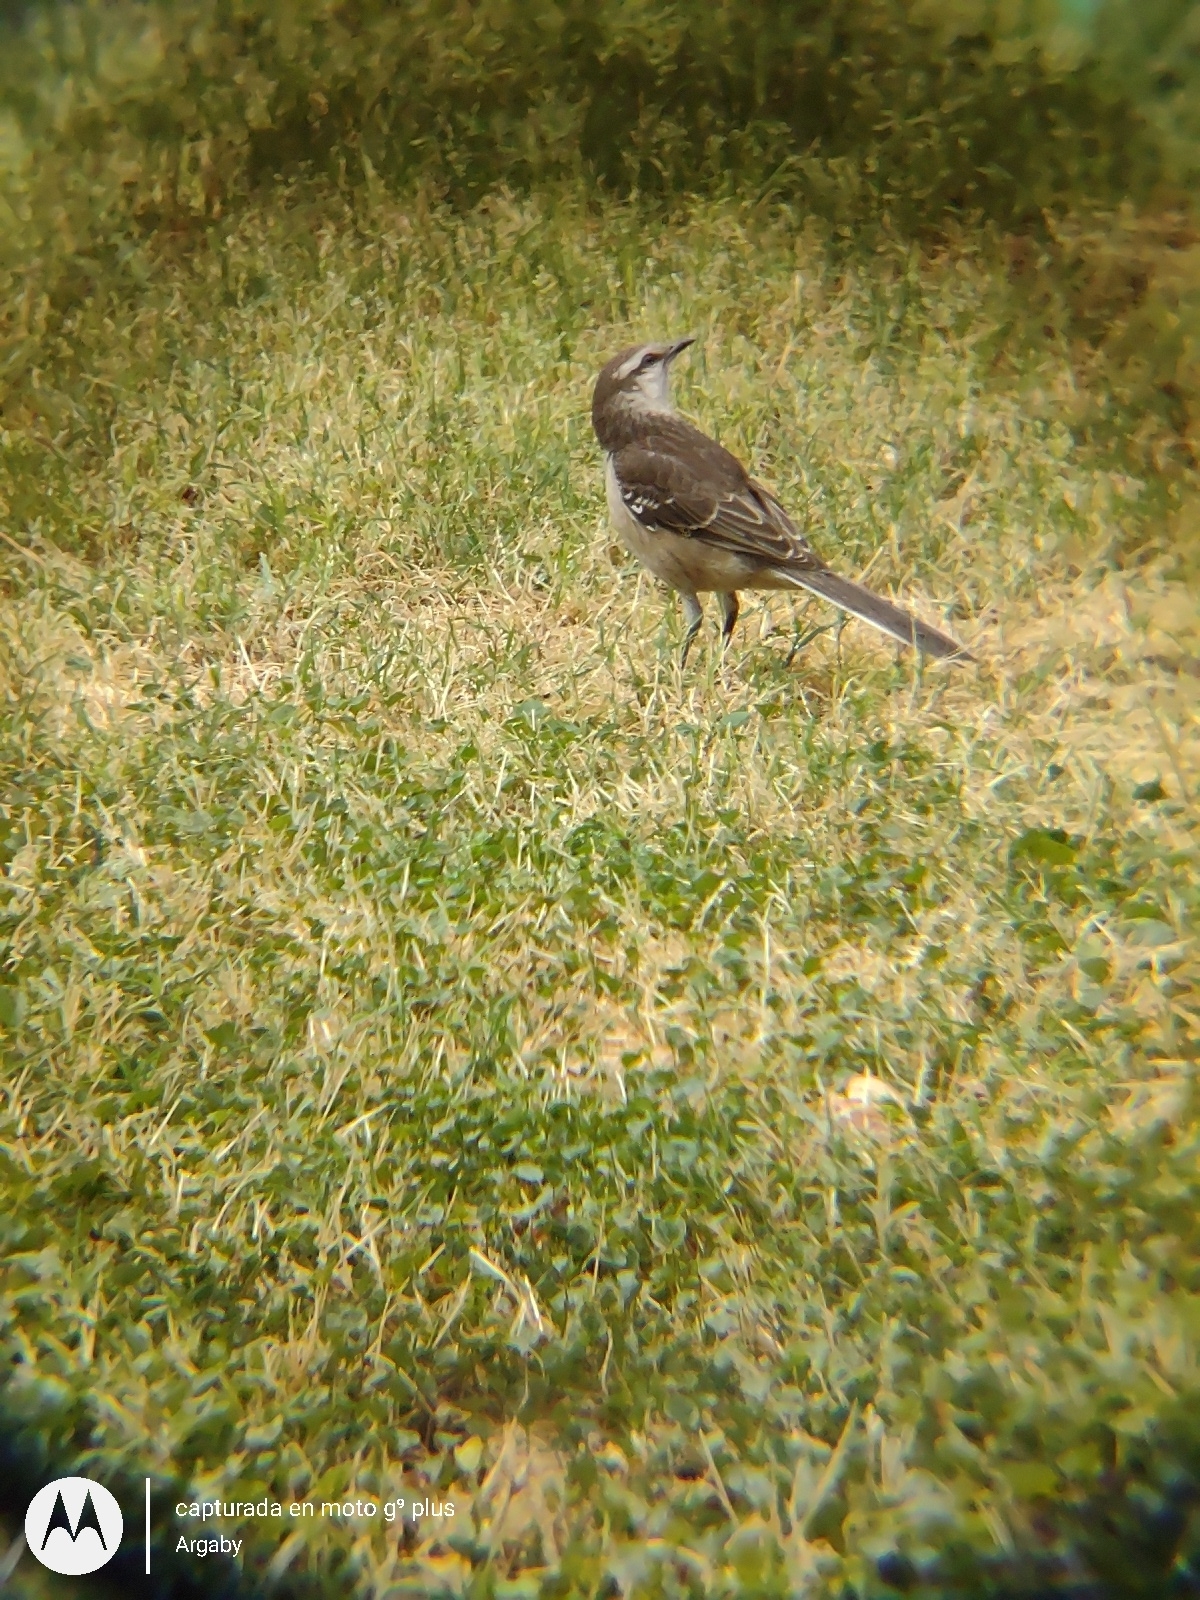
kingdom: Animalia
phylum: Chordata
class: Aves
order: Passeriformes
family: Mimidae
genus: Mimus
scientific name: Mimus saturninus
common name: Chalk-browed mockingbird
